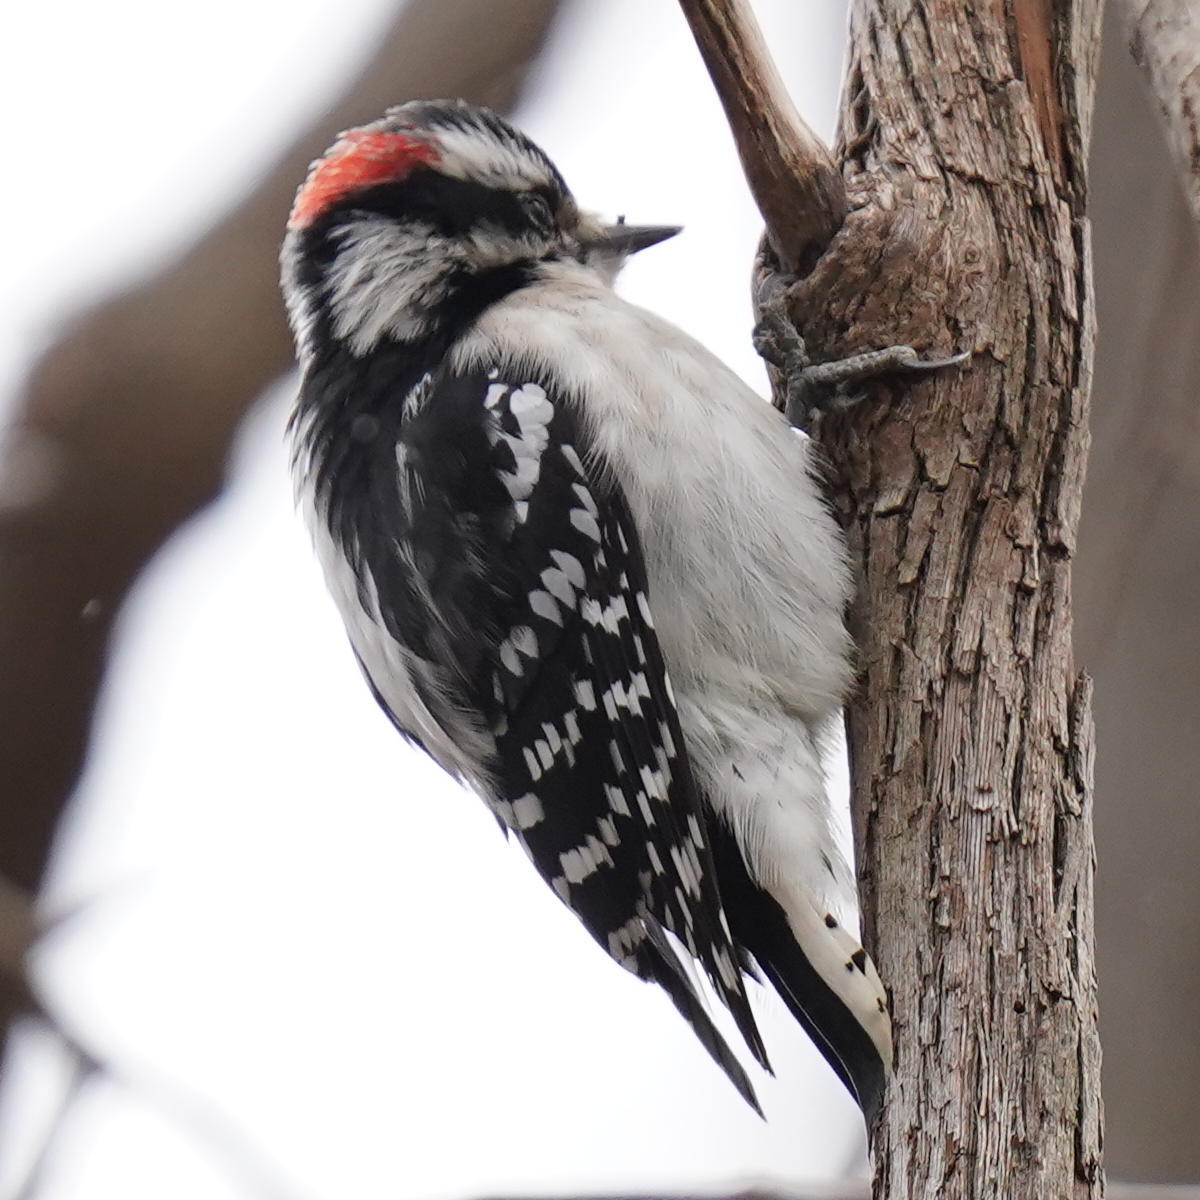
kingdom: Animalia
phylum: Chordata
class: Aves
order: Piciformes
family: Picidae
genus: Dryobates
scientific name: Dryobates pubescens
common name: Downy woodpecker
